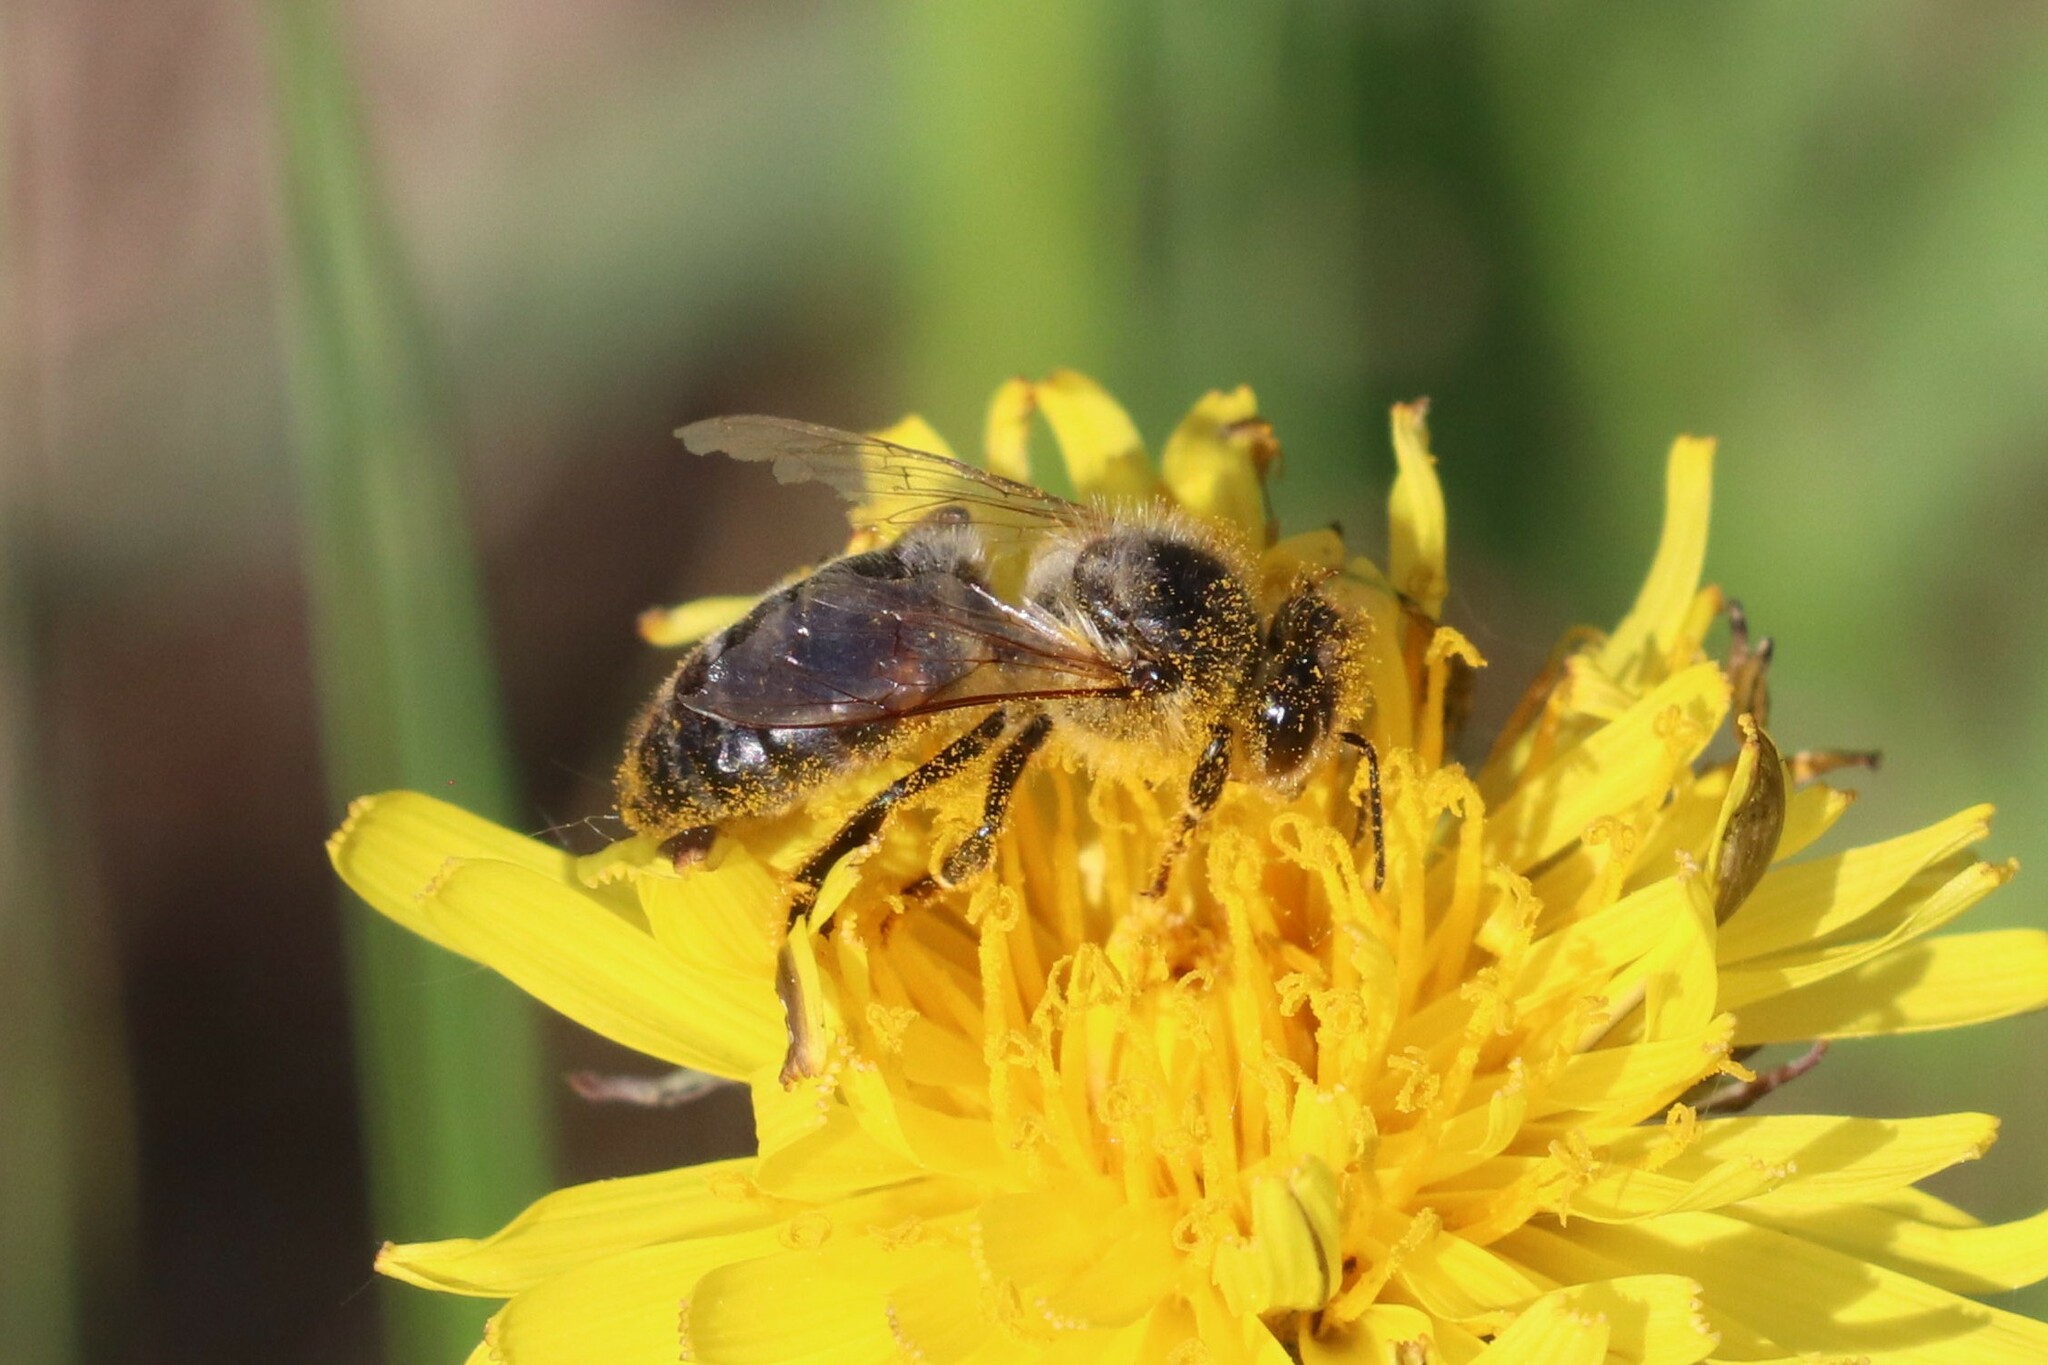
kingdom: Animalia
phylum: Arthropoda
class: Insecta
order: Hymenoptera
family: Apidae
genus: Apis
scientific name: Apis mellifera
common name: Honey bee
